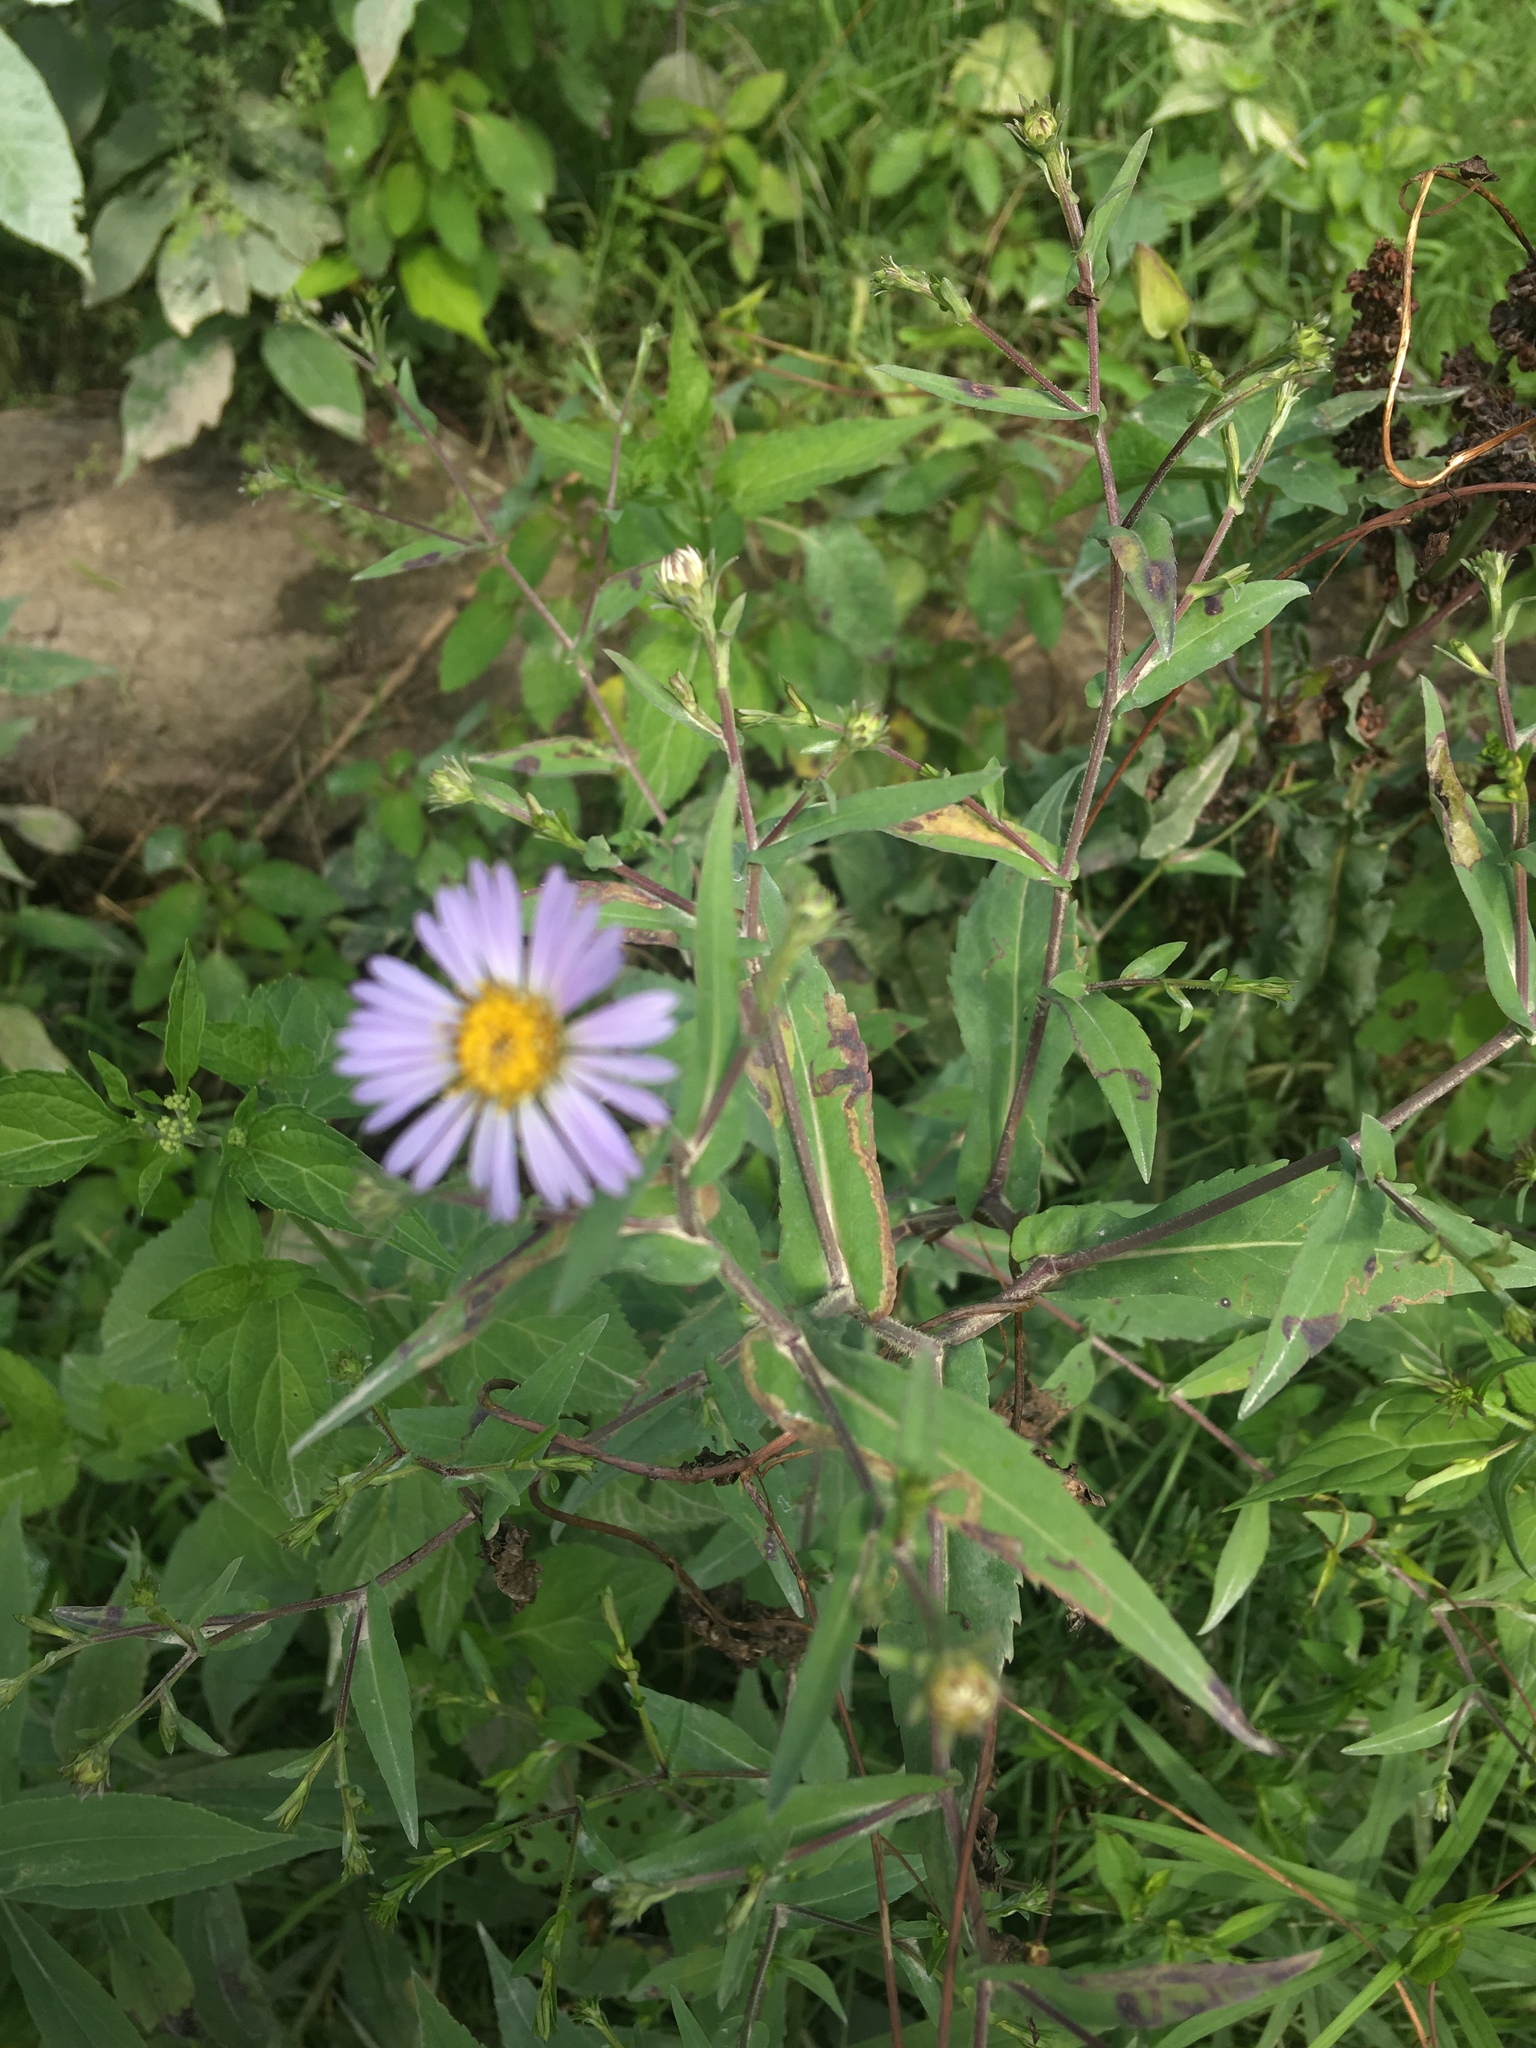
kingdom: Plantae
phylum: Tracheophyta
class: Magnoliopsida
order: Asterales
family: Asteraceae
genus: Symphyotrichum
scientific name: Symphyotrichum prenanthoides
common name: Crooked-stem aster
